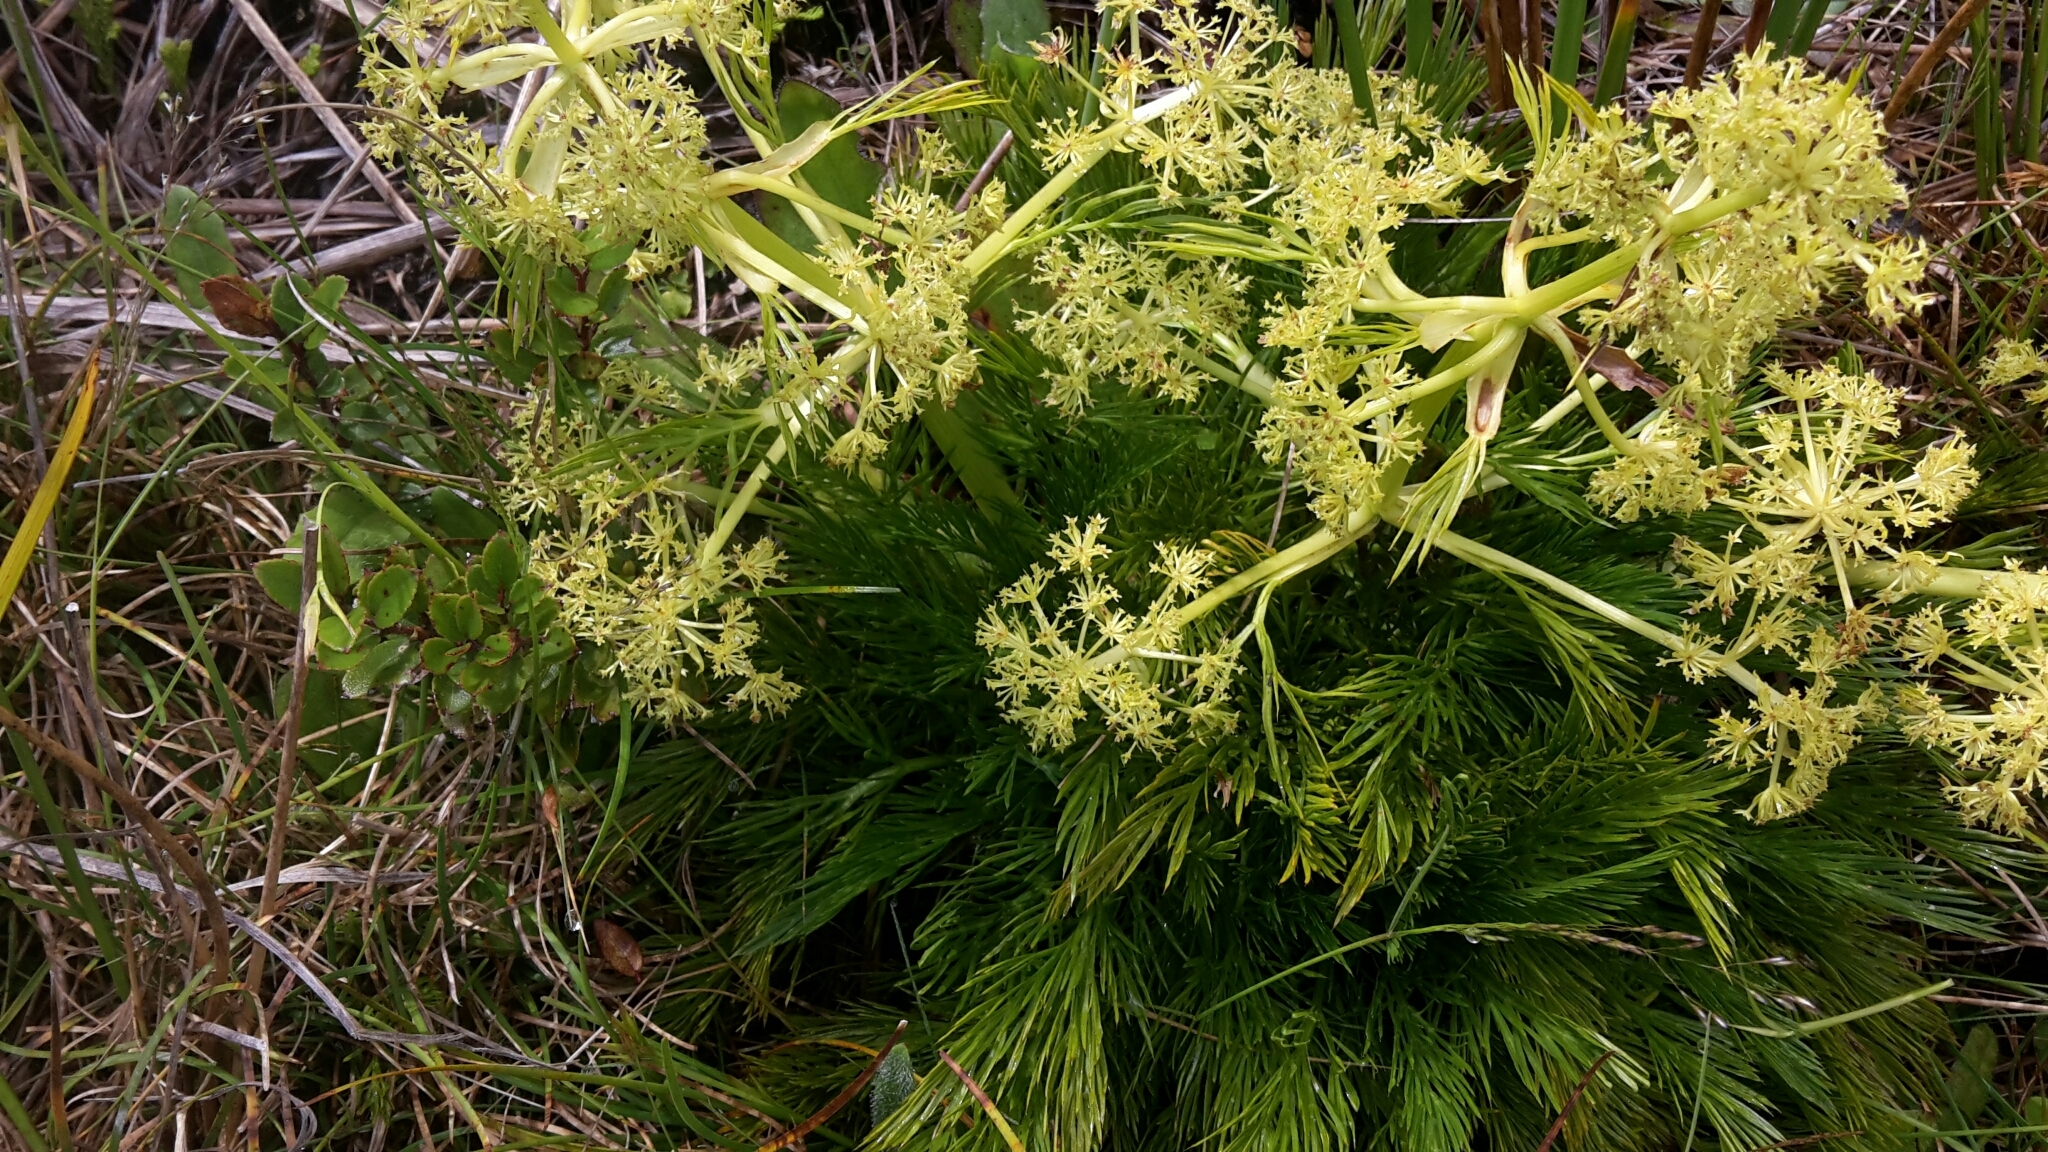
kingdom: Plantae
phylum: Tracheophyta
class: Magnoliopsida
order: Apiales
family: Apiaceae
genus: Aciphylla
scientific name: Aciphylla dissecta
